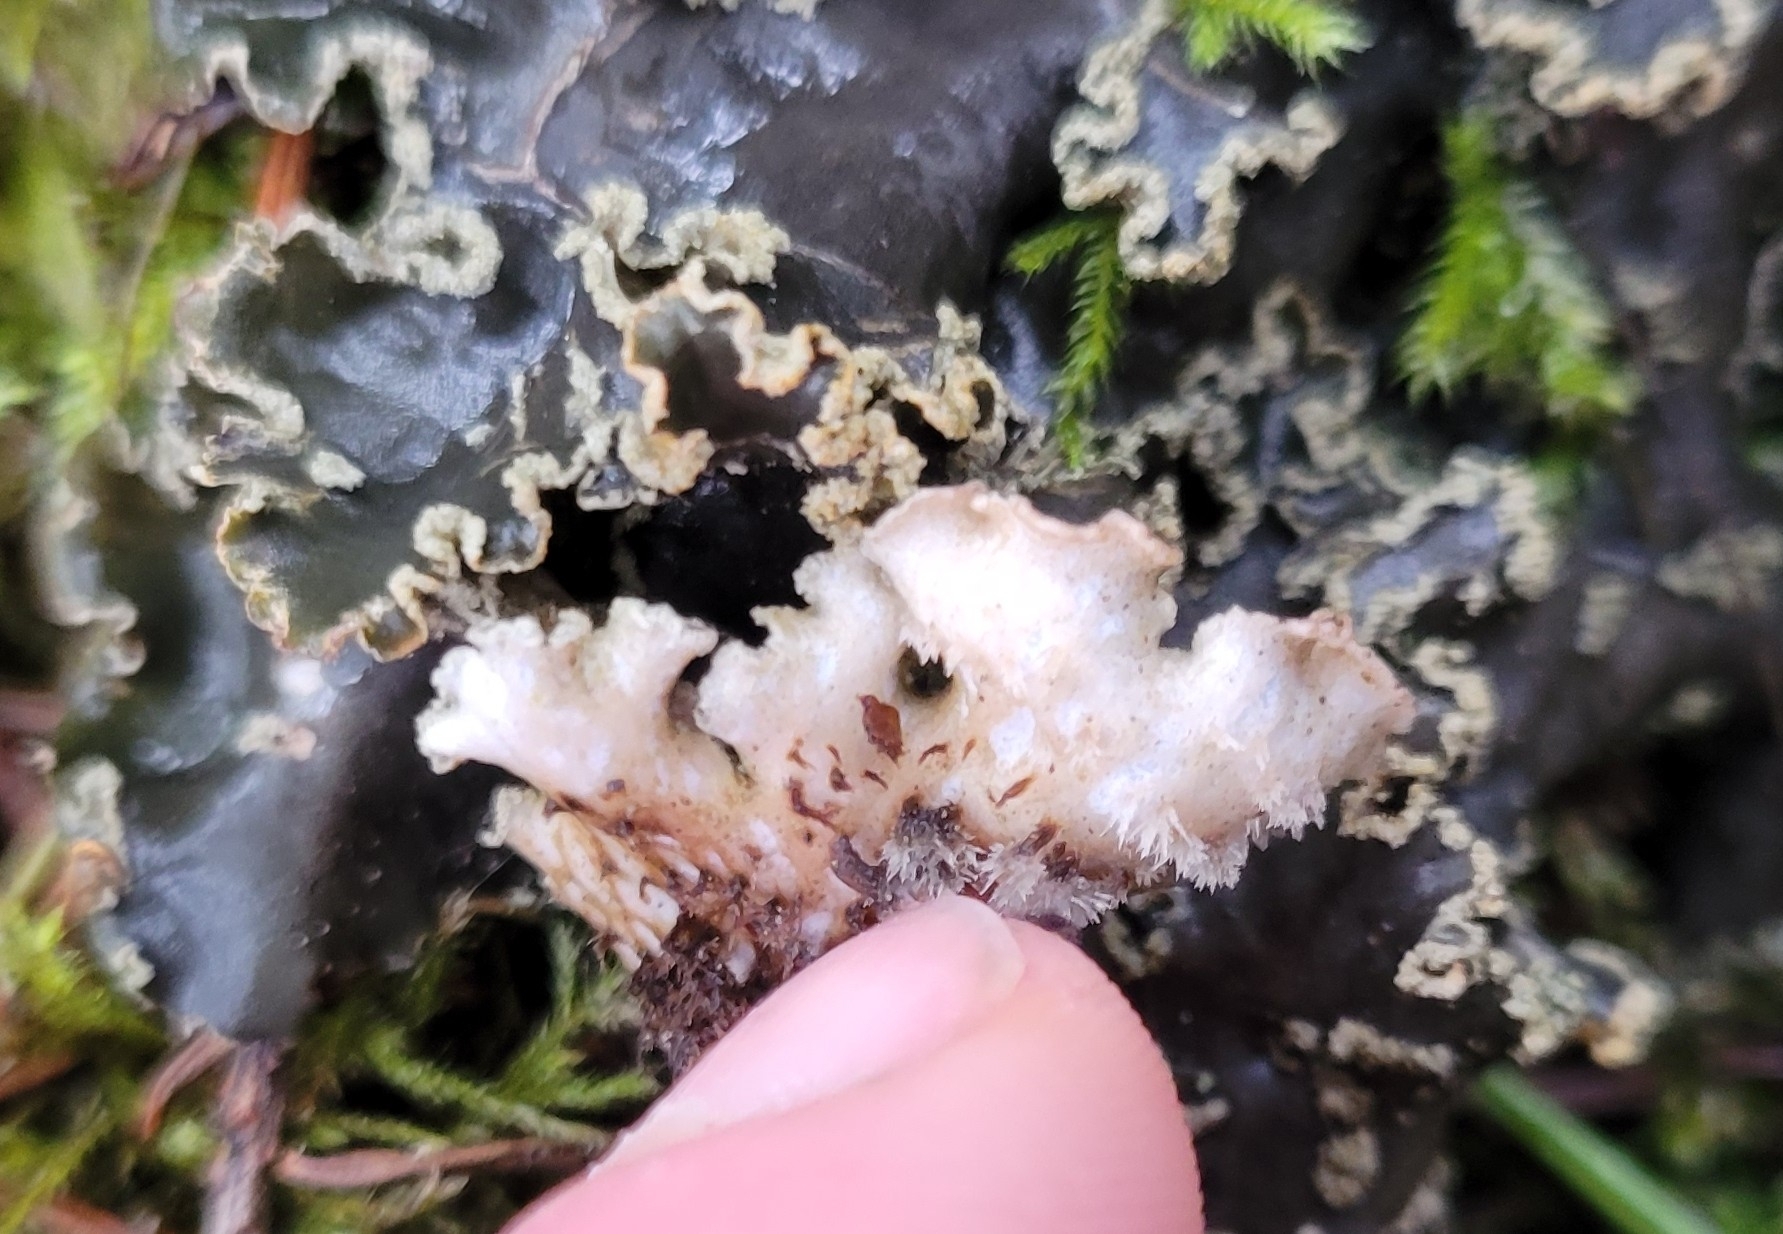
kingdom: Fungi
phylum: Ascomycota
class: Lecanoromycetes
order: Peltigerales
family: Peltigeraceae
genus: Peltigera
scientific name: Peltigera collina
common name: Gritty tree pelt lichen
